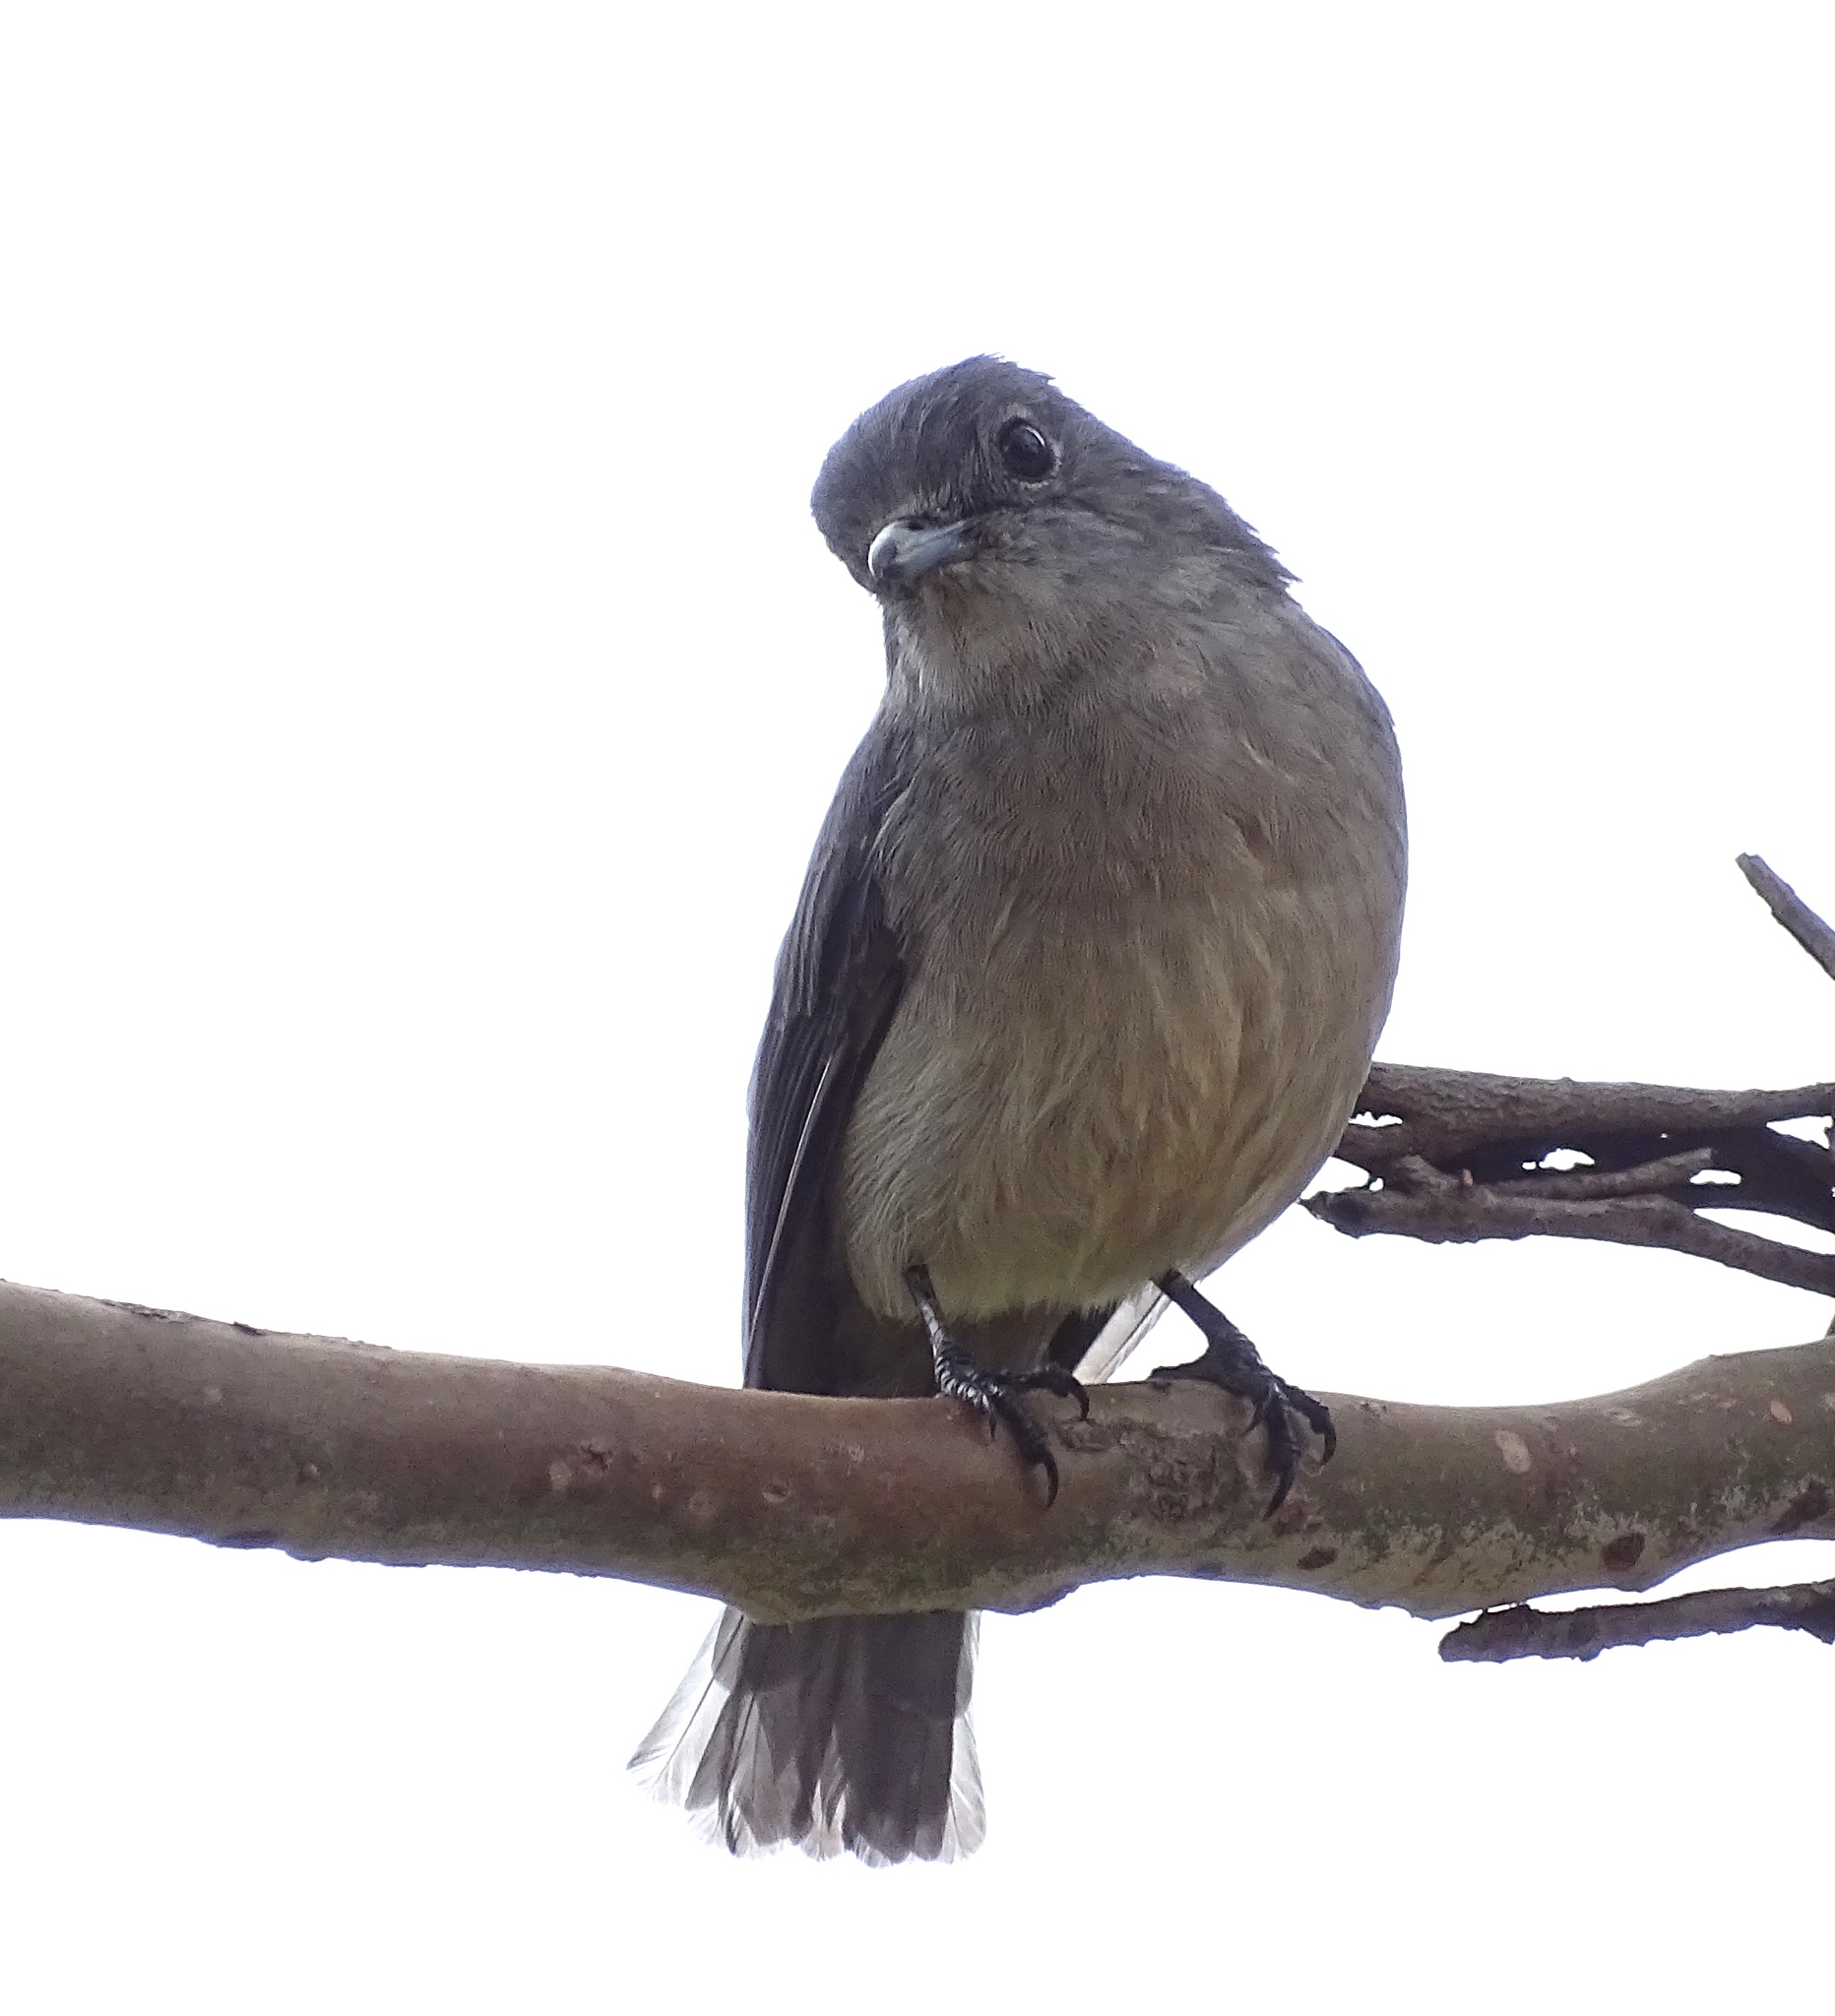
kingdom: Animalia
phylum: Chordata
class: Aves
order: Passeriformes
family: Muscicapidae
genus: Dioptrornis
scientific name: Dioptrornis fischeri
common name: White-eyed slaty flycatcher
